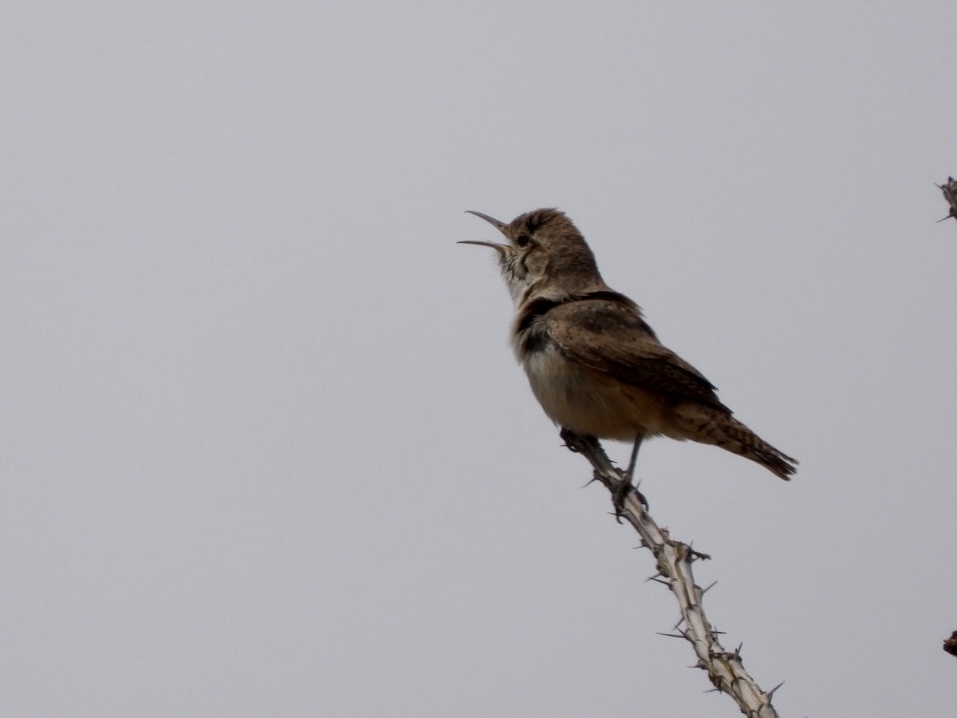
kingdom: Animalia
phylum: Chordata
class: Aves
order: Passeriformes
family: Troglodytidae
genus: Salpinctes
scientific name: Salpinctes obsoletus
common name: Rock wren
